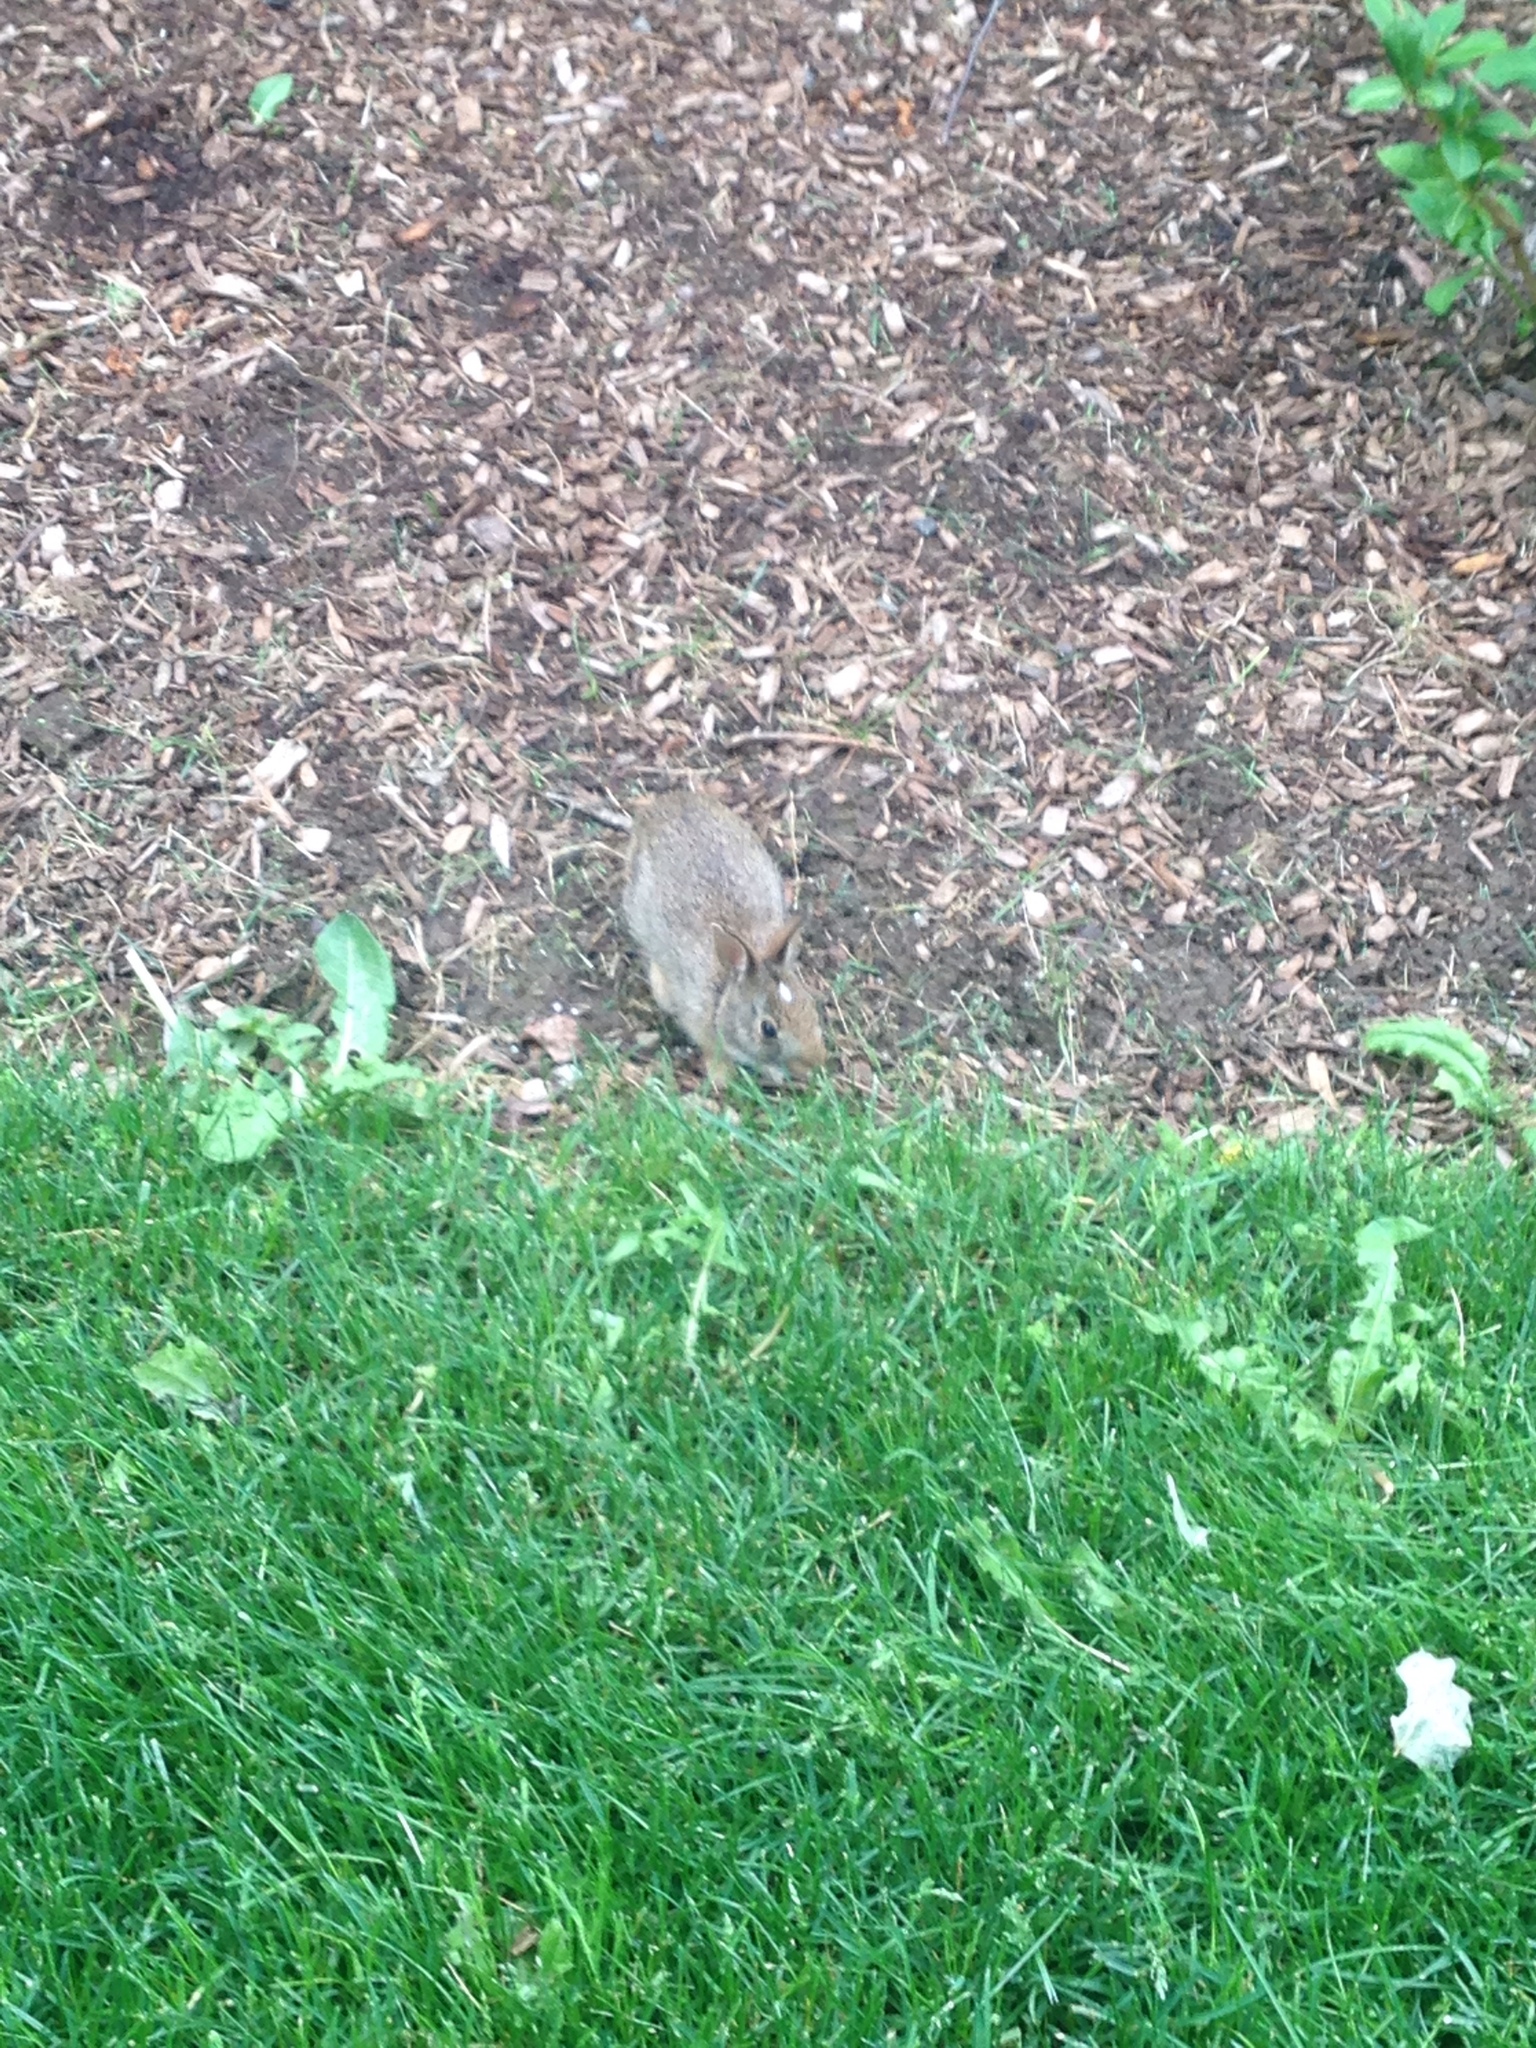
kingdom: Animalia
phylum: Chordata
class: Mammalia
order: Lagomorpha
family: Leporidae
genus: Sylvilagus
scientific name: Sylvilagus floridanus
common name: Eastern cottontail
